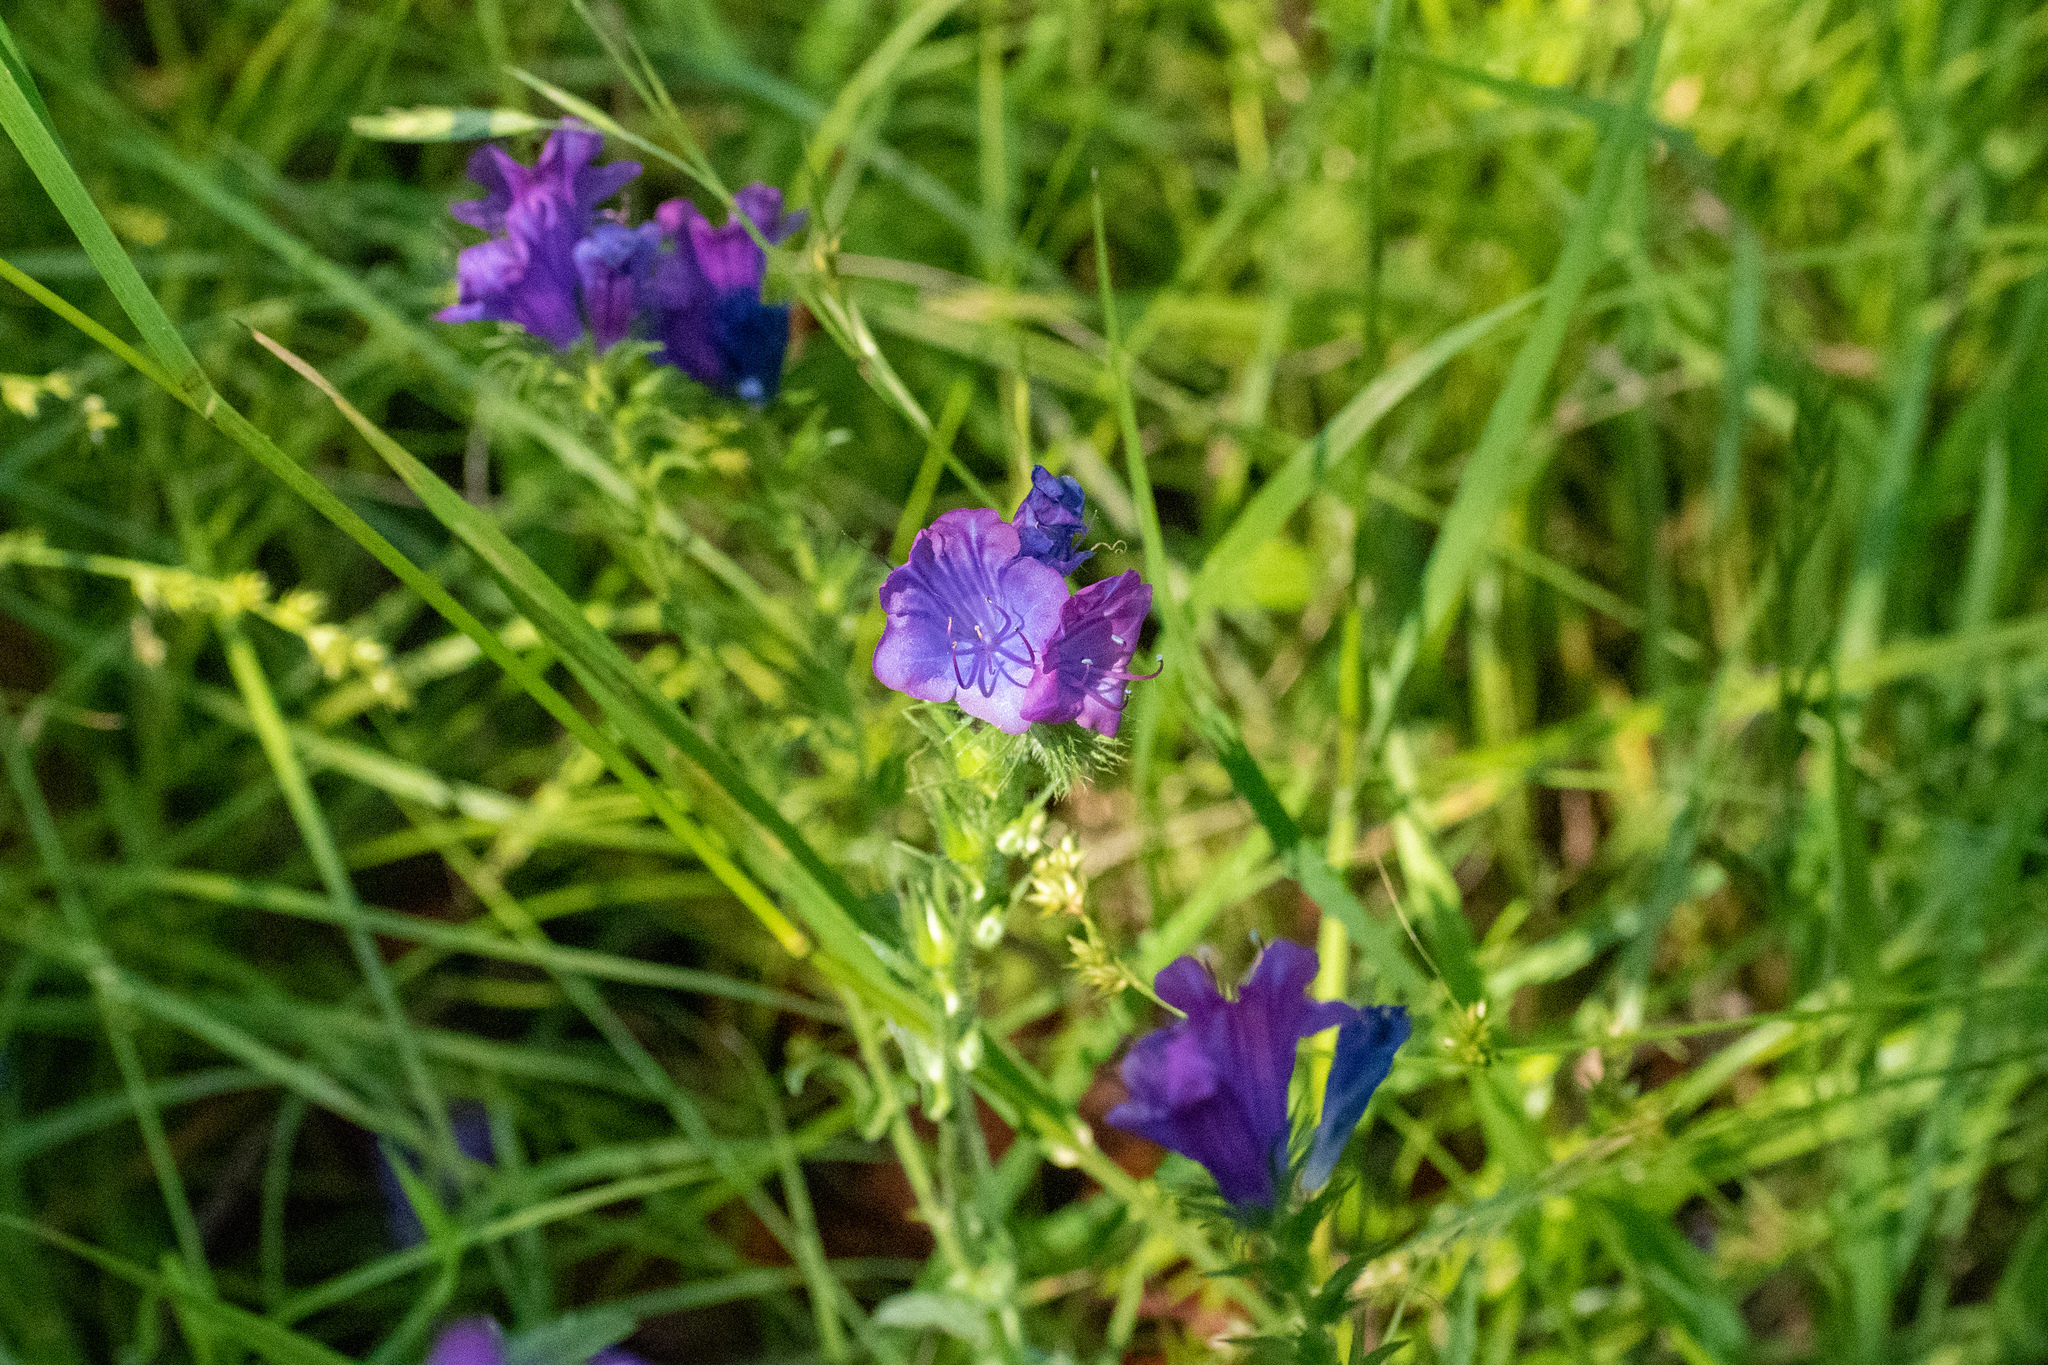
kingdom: Plantae
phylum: Tracheophyta
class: Magnoliopsida
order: Boraginales
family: Boraginaceae
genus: Echium
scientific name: Echium plantagineum
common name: Purple viper's-bugloss
